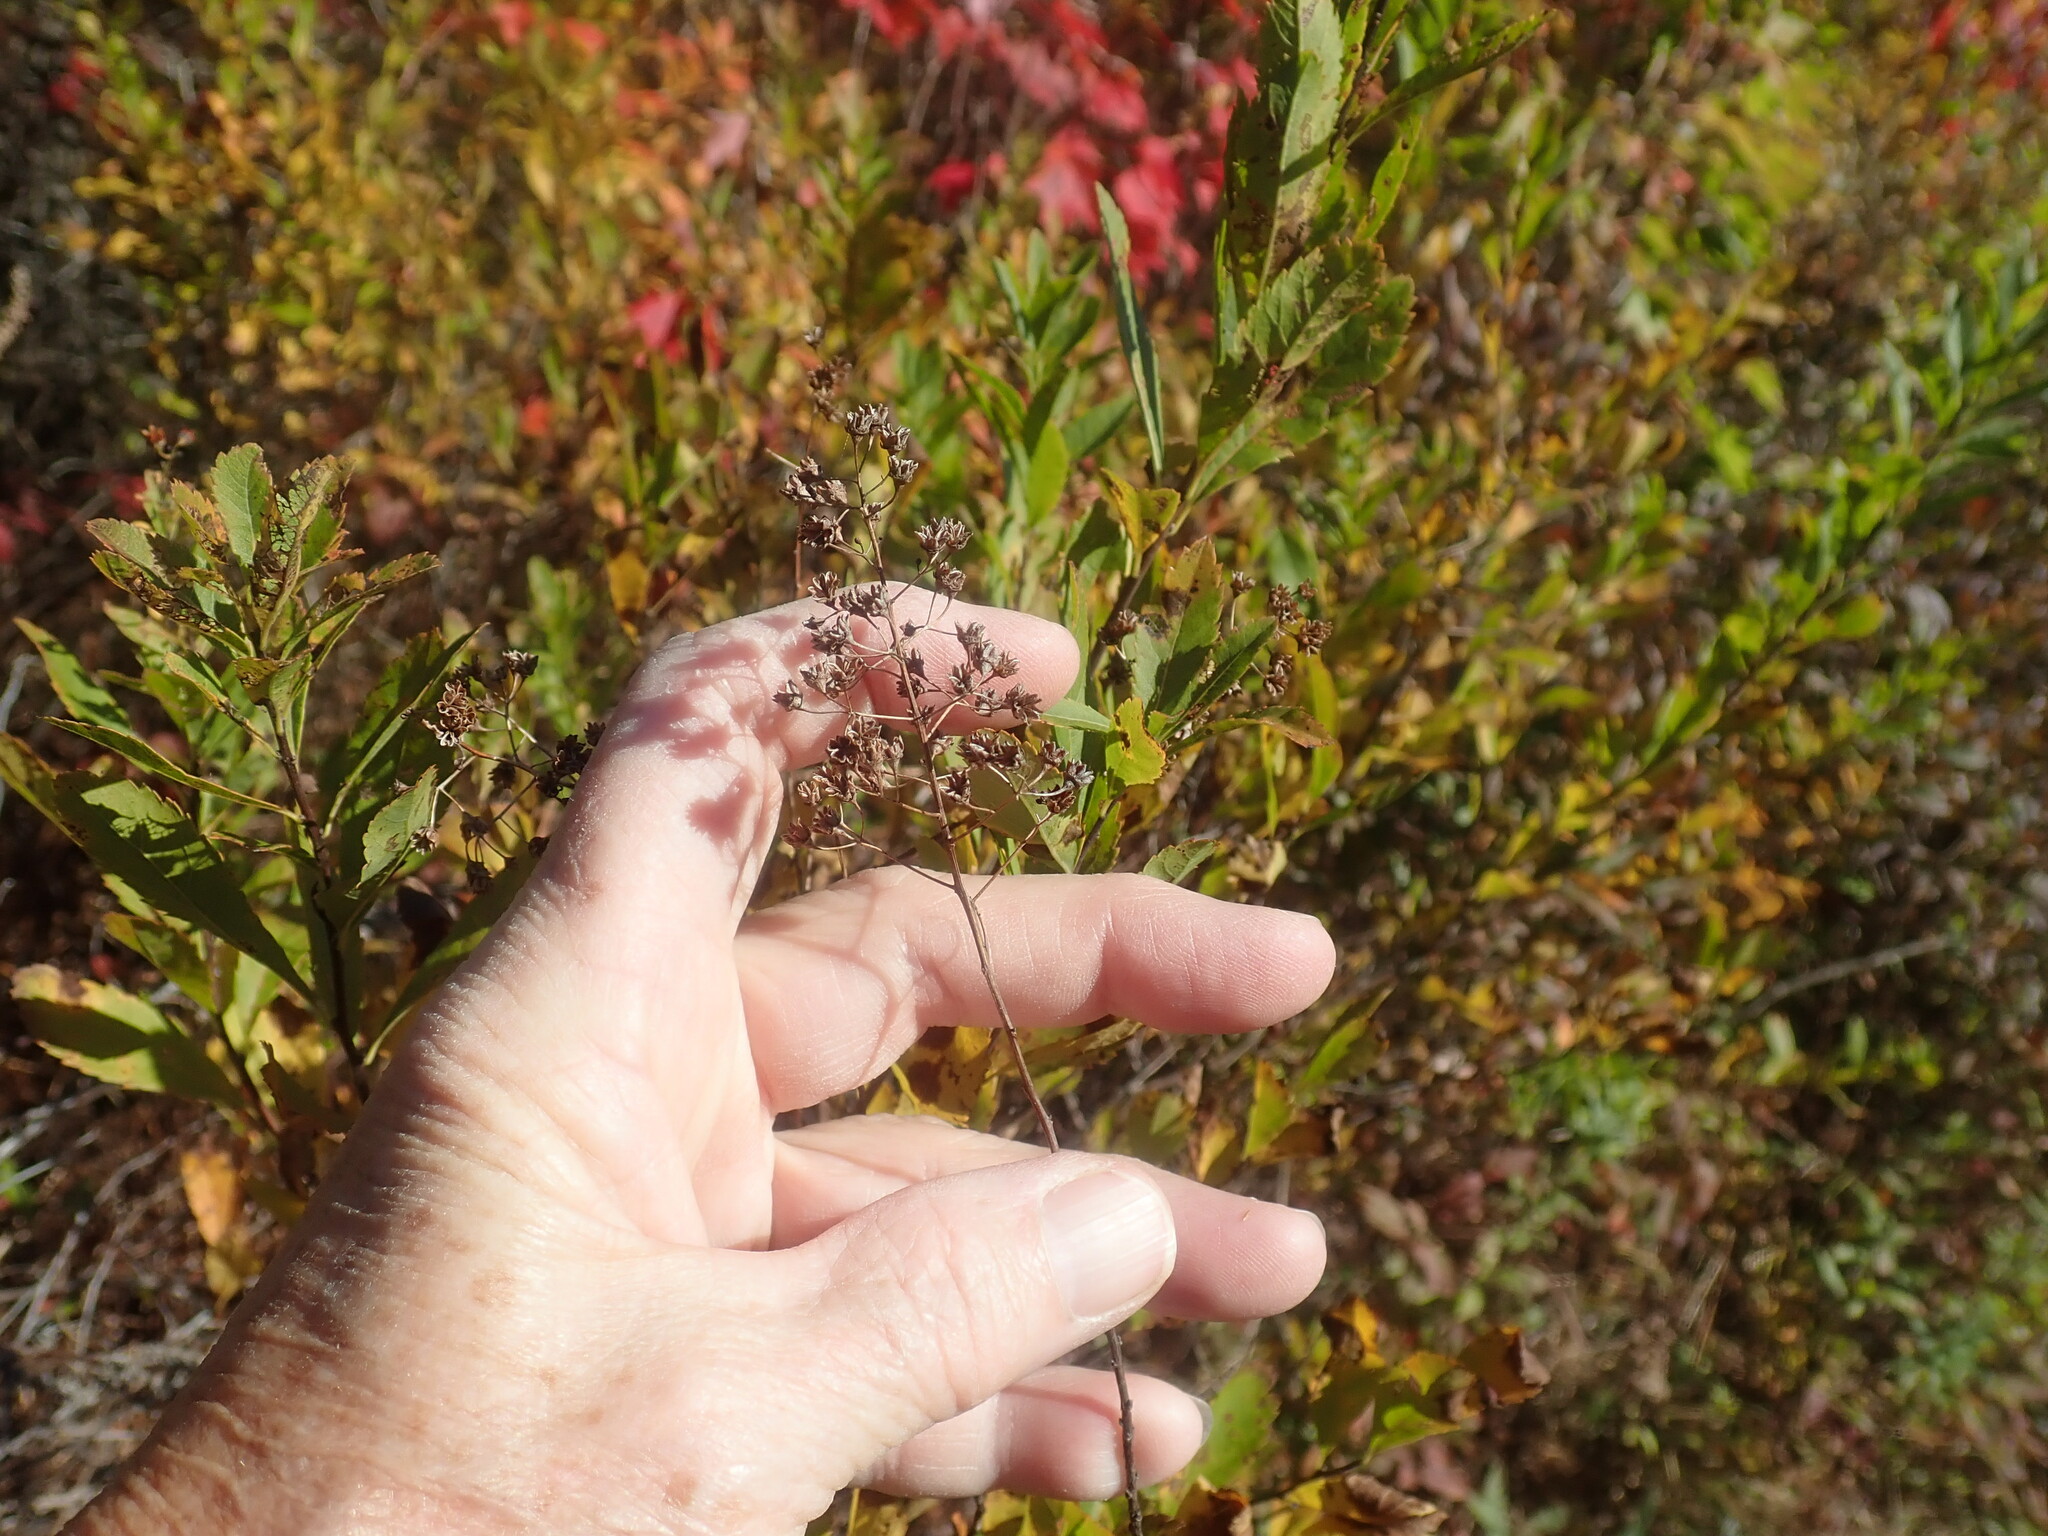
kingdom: Plantae
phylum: Tracheophyta
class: Magnoliopsida
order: Rosales
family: Rosaceae
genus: Spiraea
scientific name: Spiraea alba
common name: Pale bridewort
